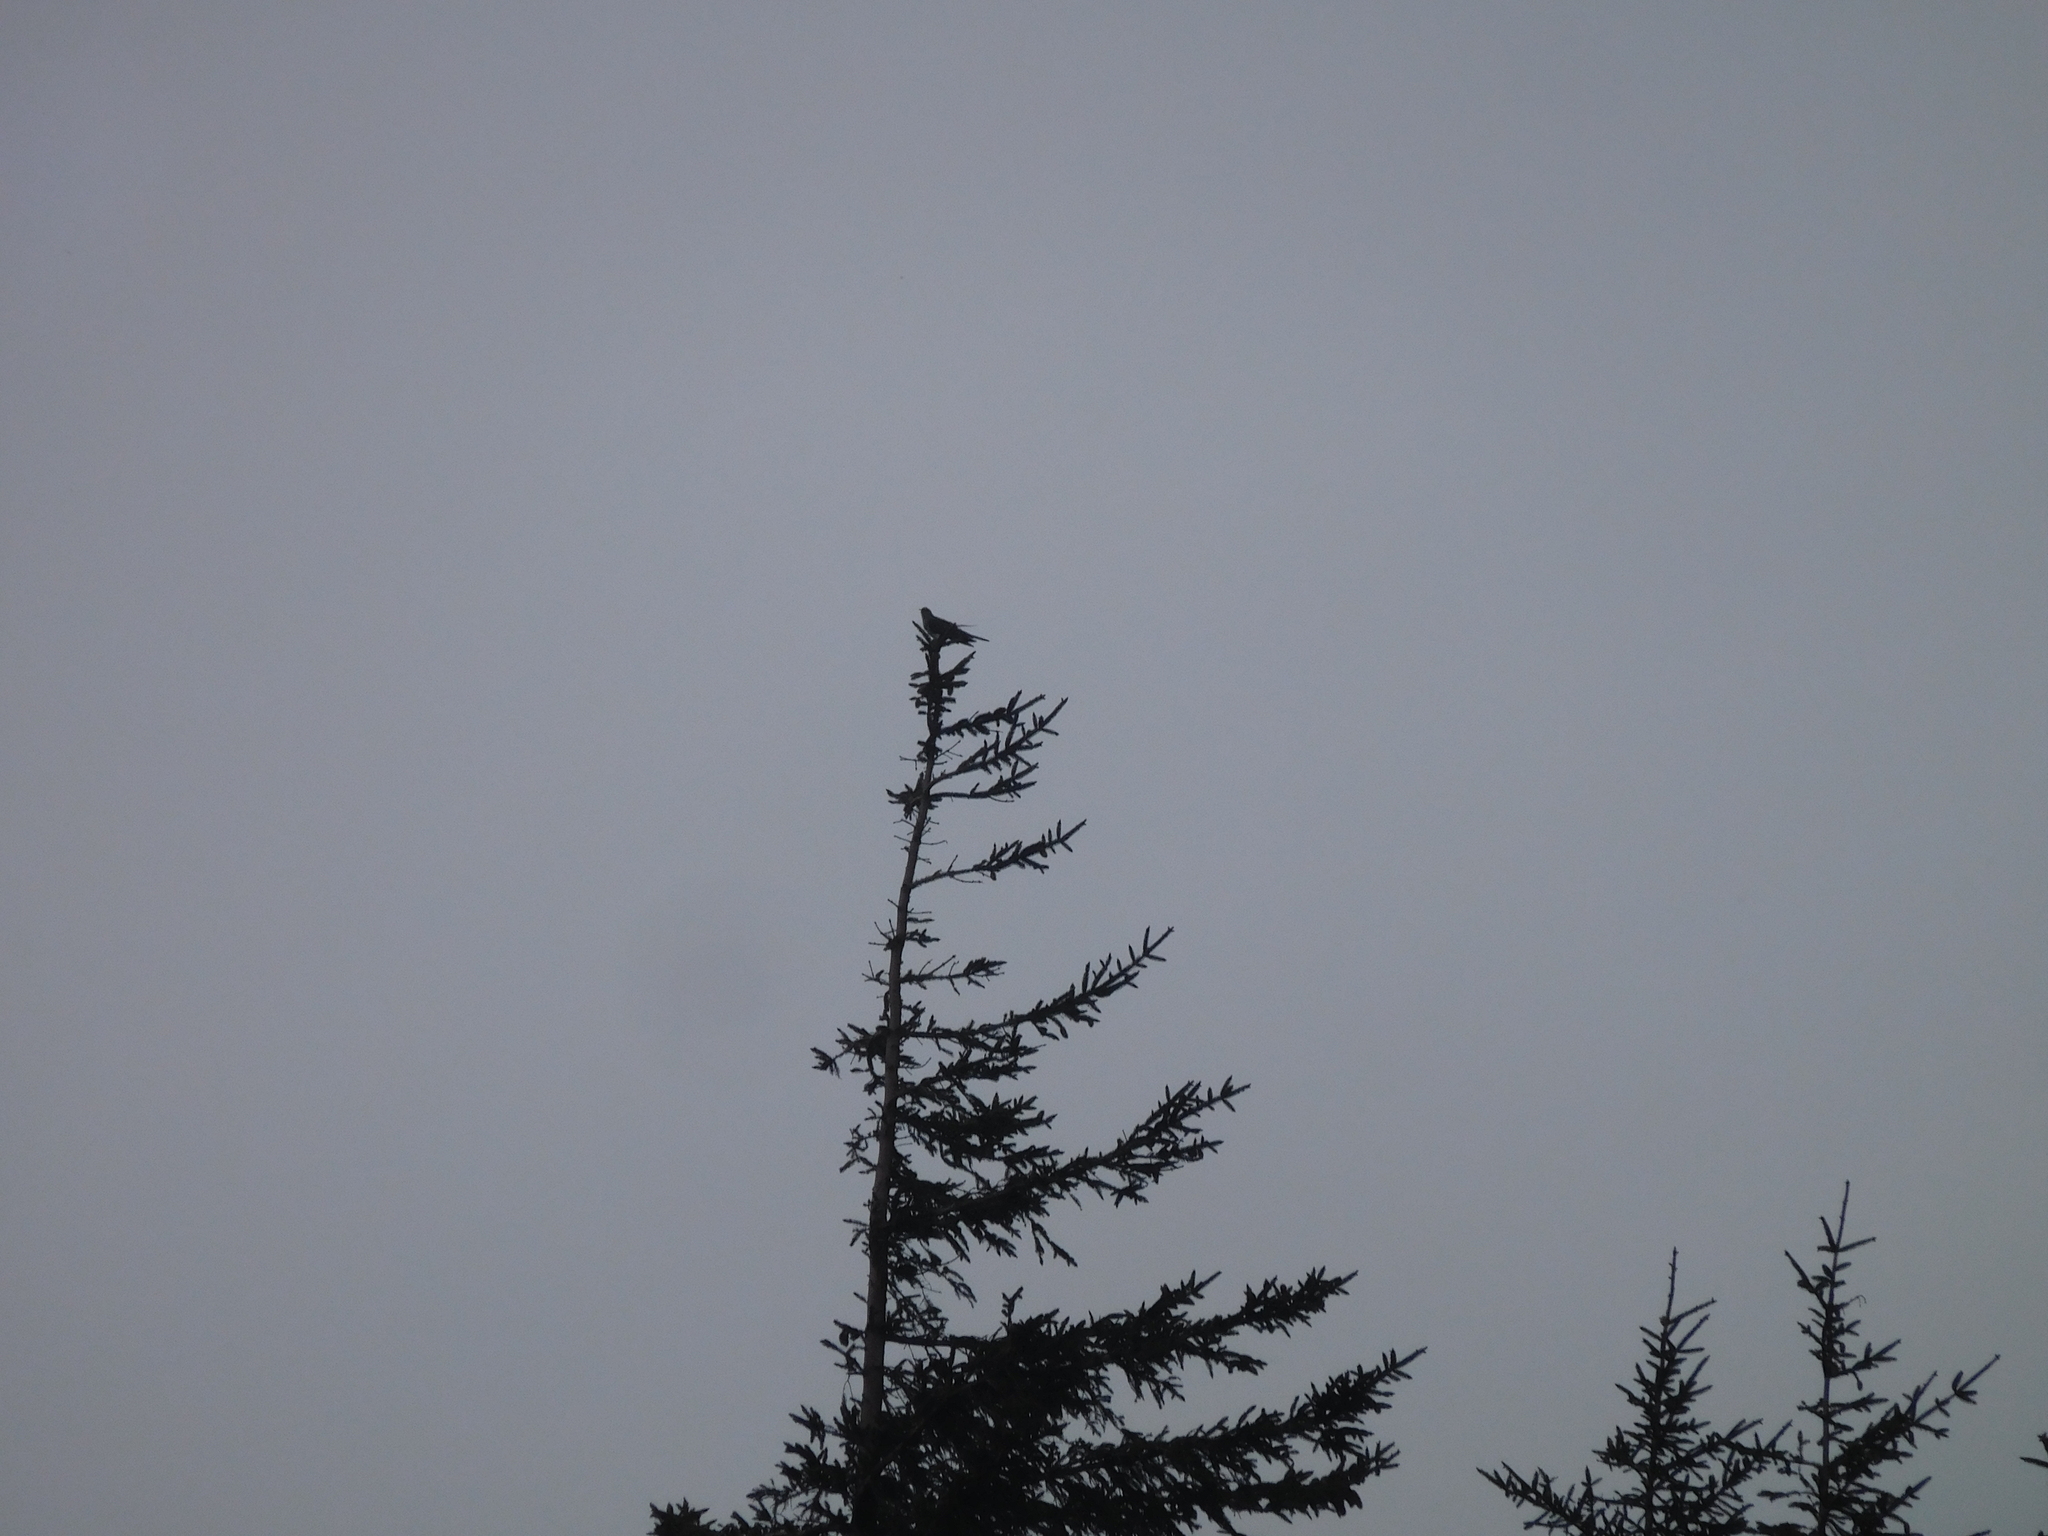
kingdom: Animalia
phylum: Chordata
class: Aves
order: Cuculiformes
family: Cuculidae
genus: Cuculus
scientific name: Cuculus canorus
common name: Common cuckoo
